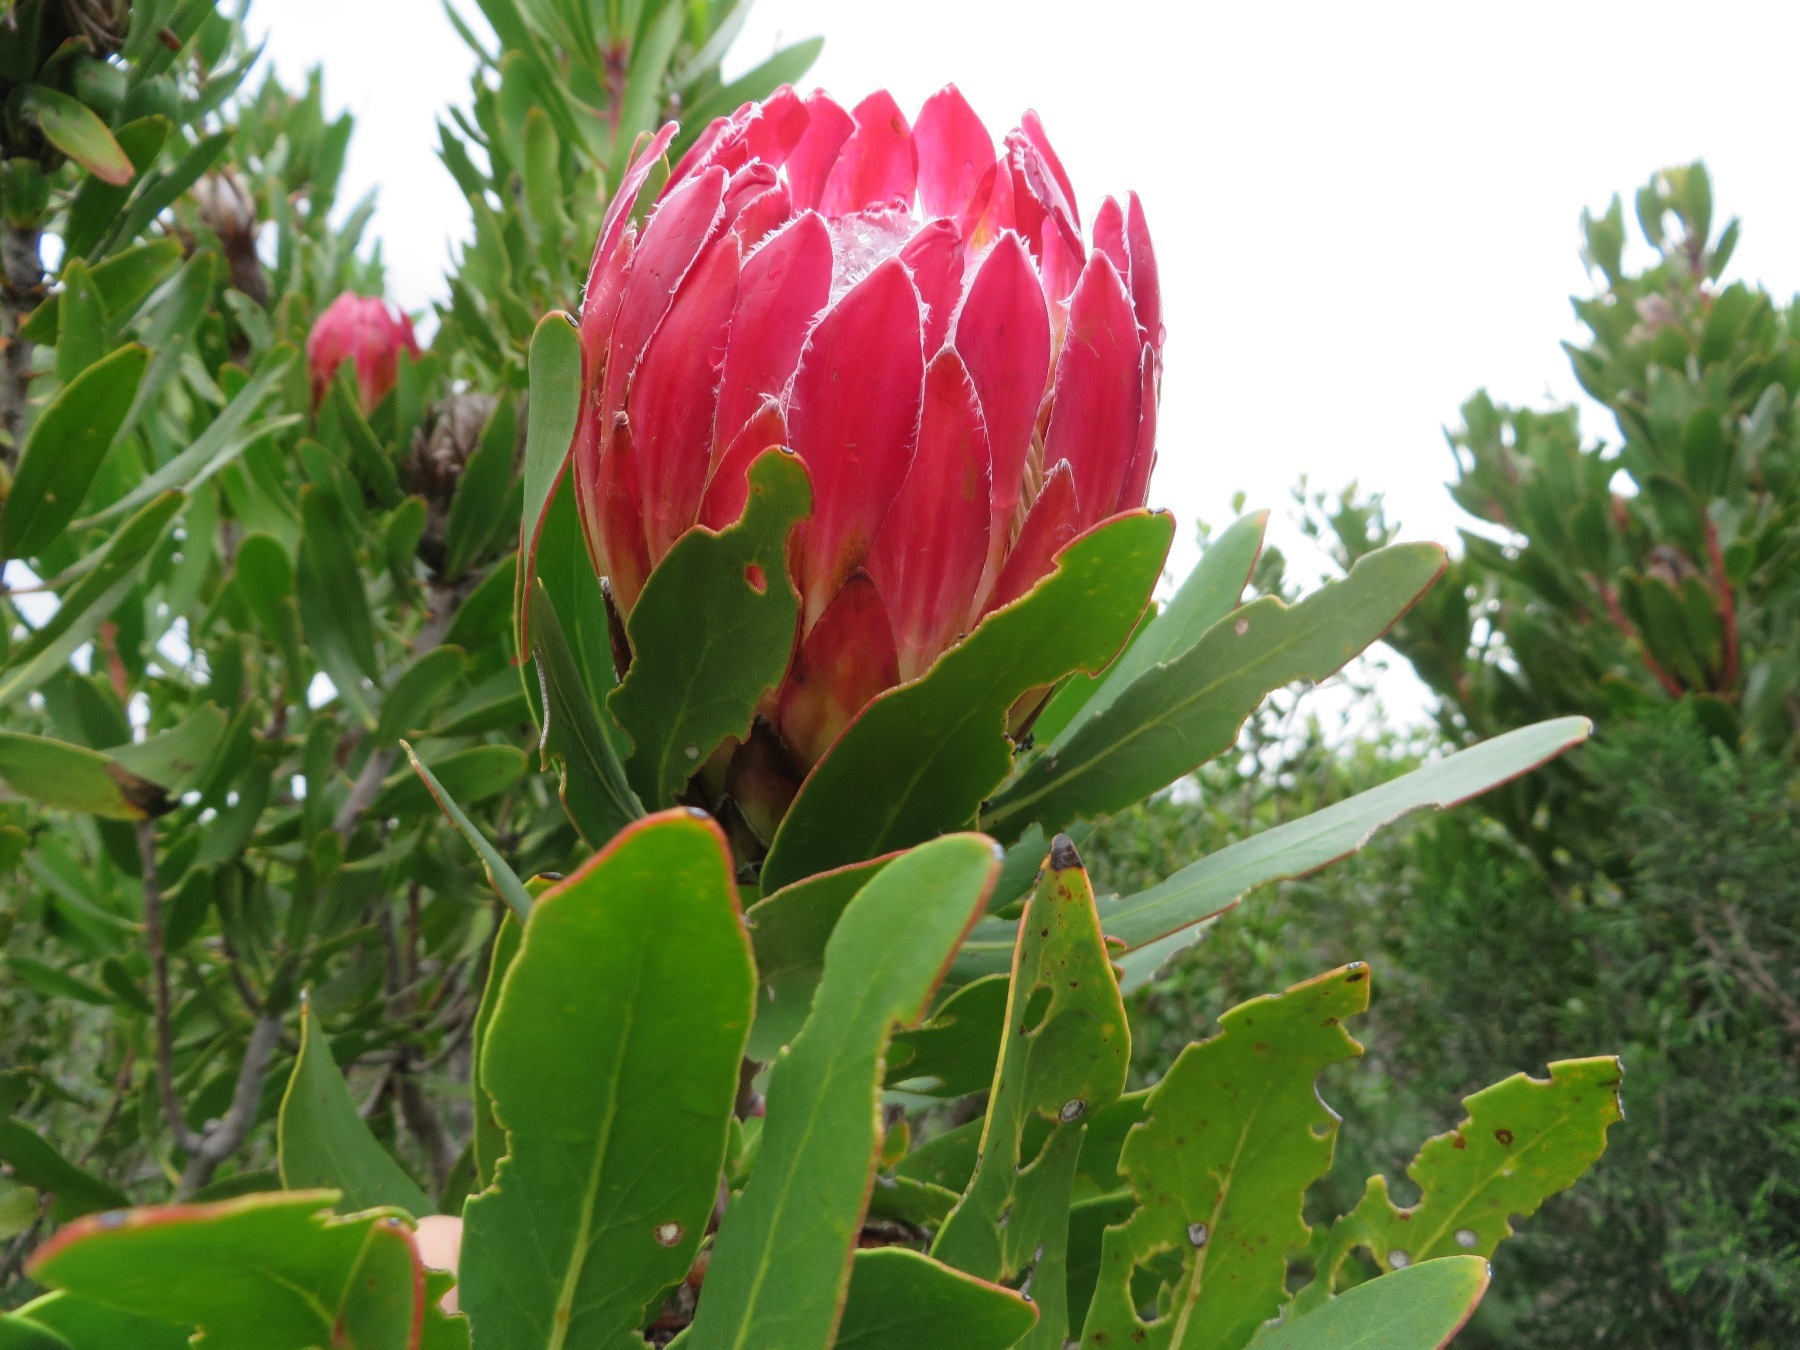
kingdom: Plantae
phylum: Tracheophyta
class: Magnoliopsida
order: Proteales
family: Proteaceae
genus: Protea
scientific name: Protea obtusifolia
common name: Bredasdorp sugarbush
